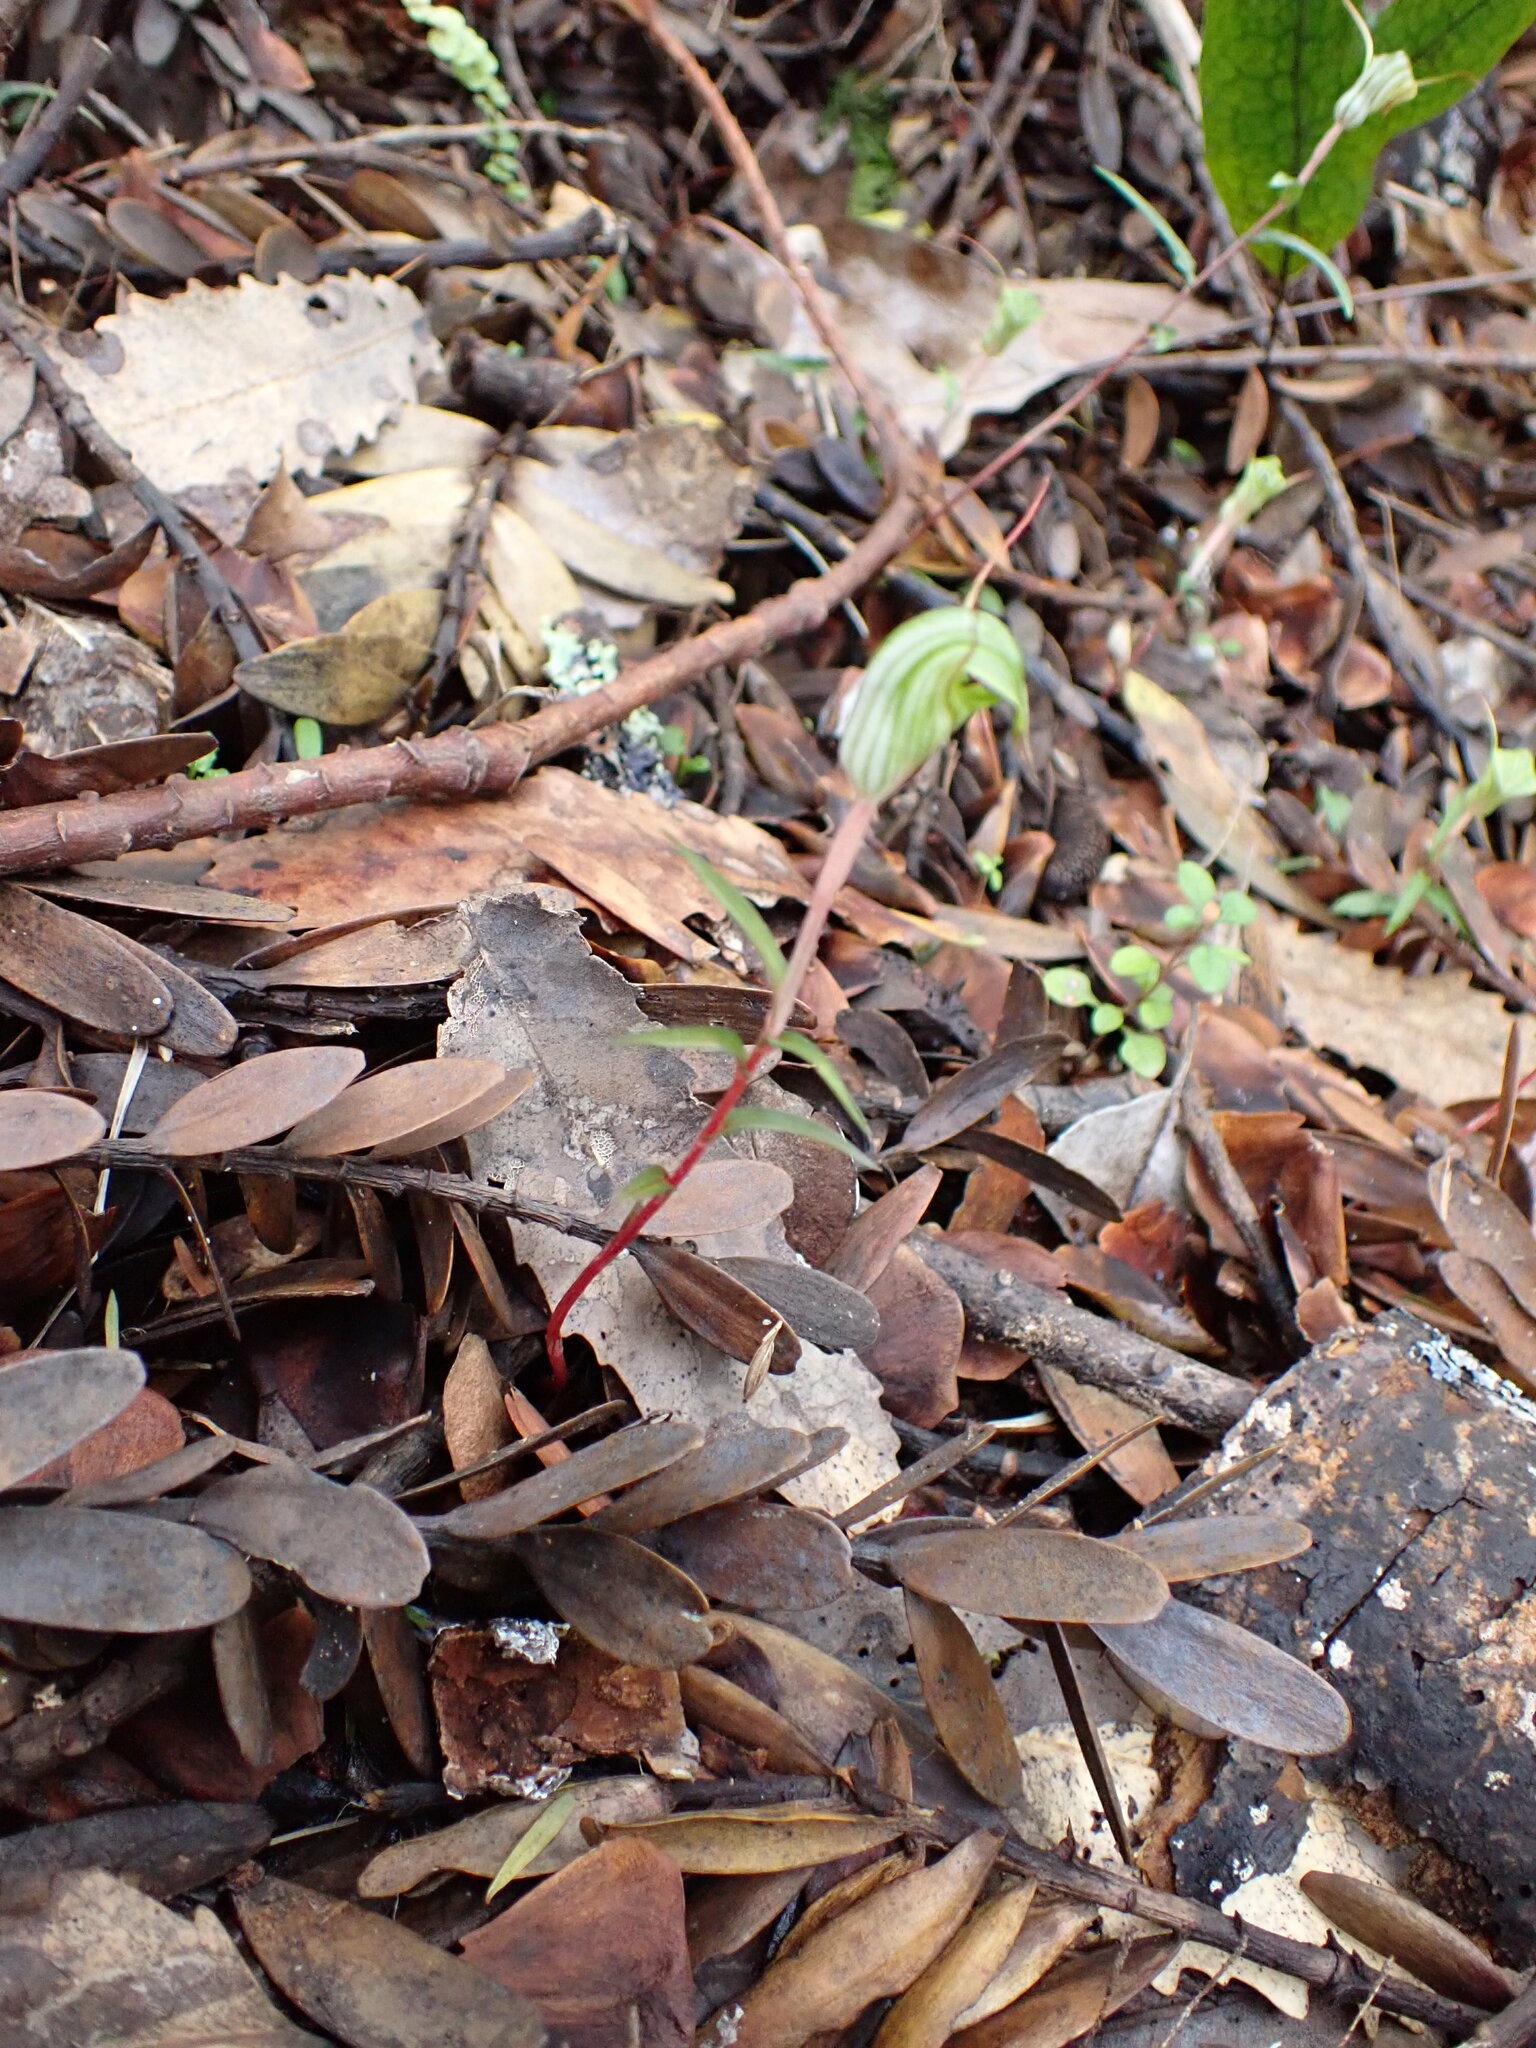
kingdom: Plantae
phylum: Tracheophyta
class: Liliopsida
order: Asparagales
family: Orchidaceae
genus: Pterostylis
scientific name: Pterostylis brumalis
